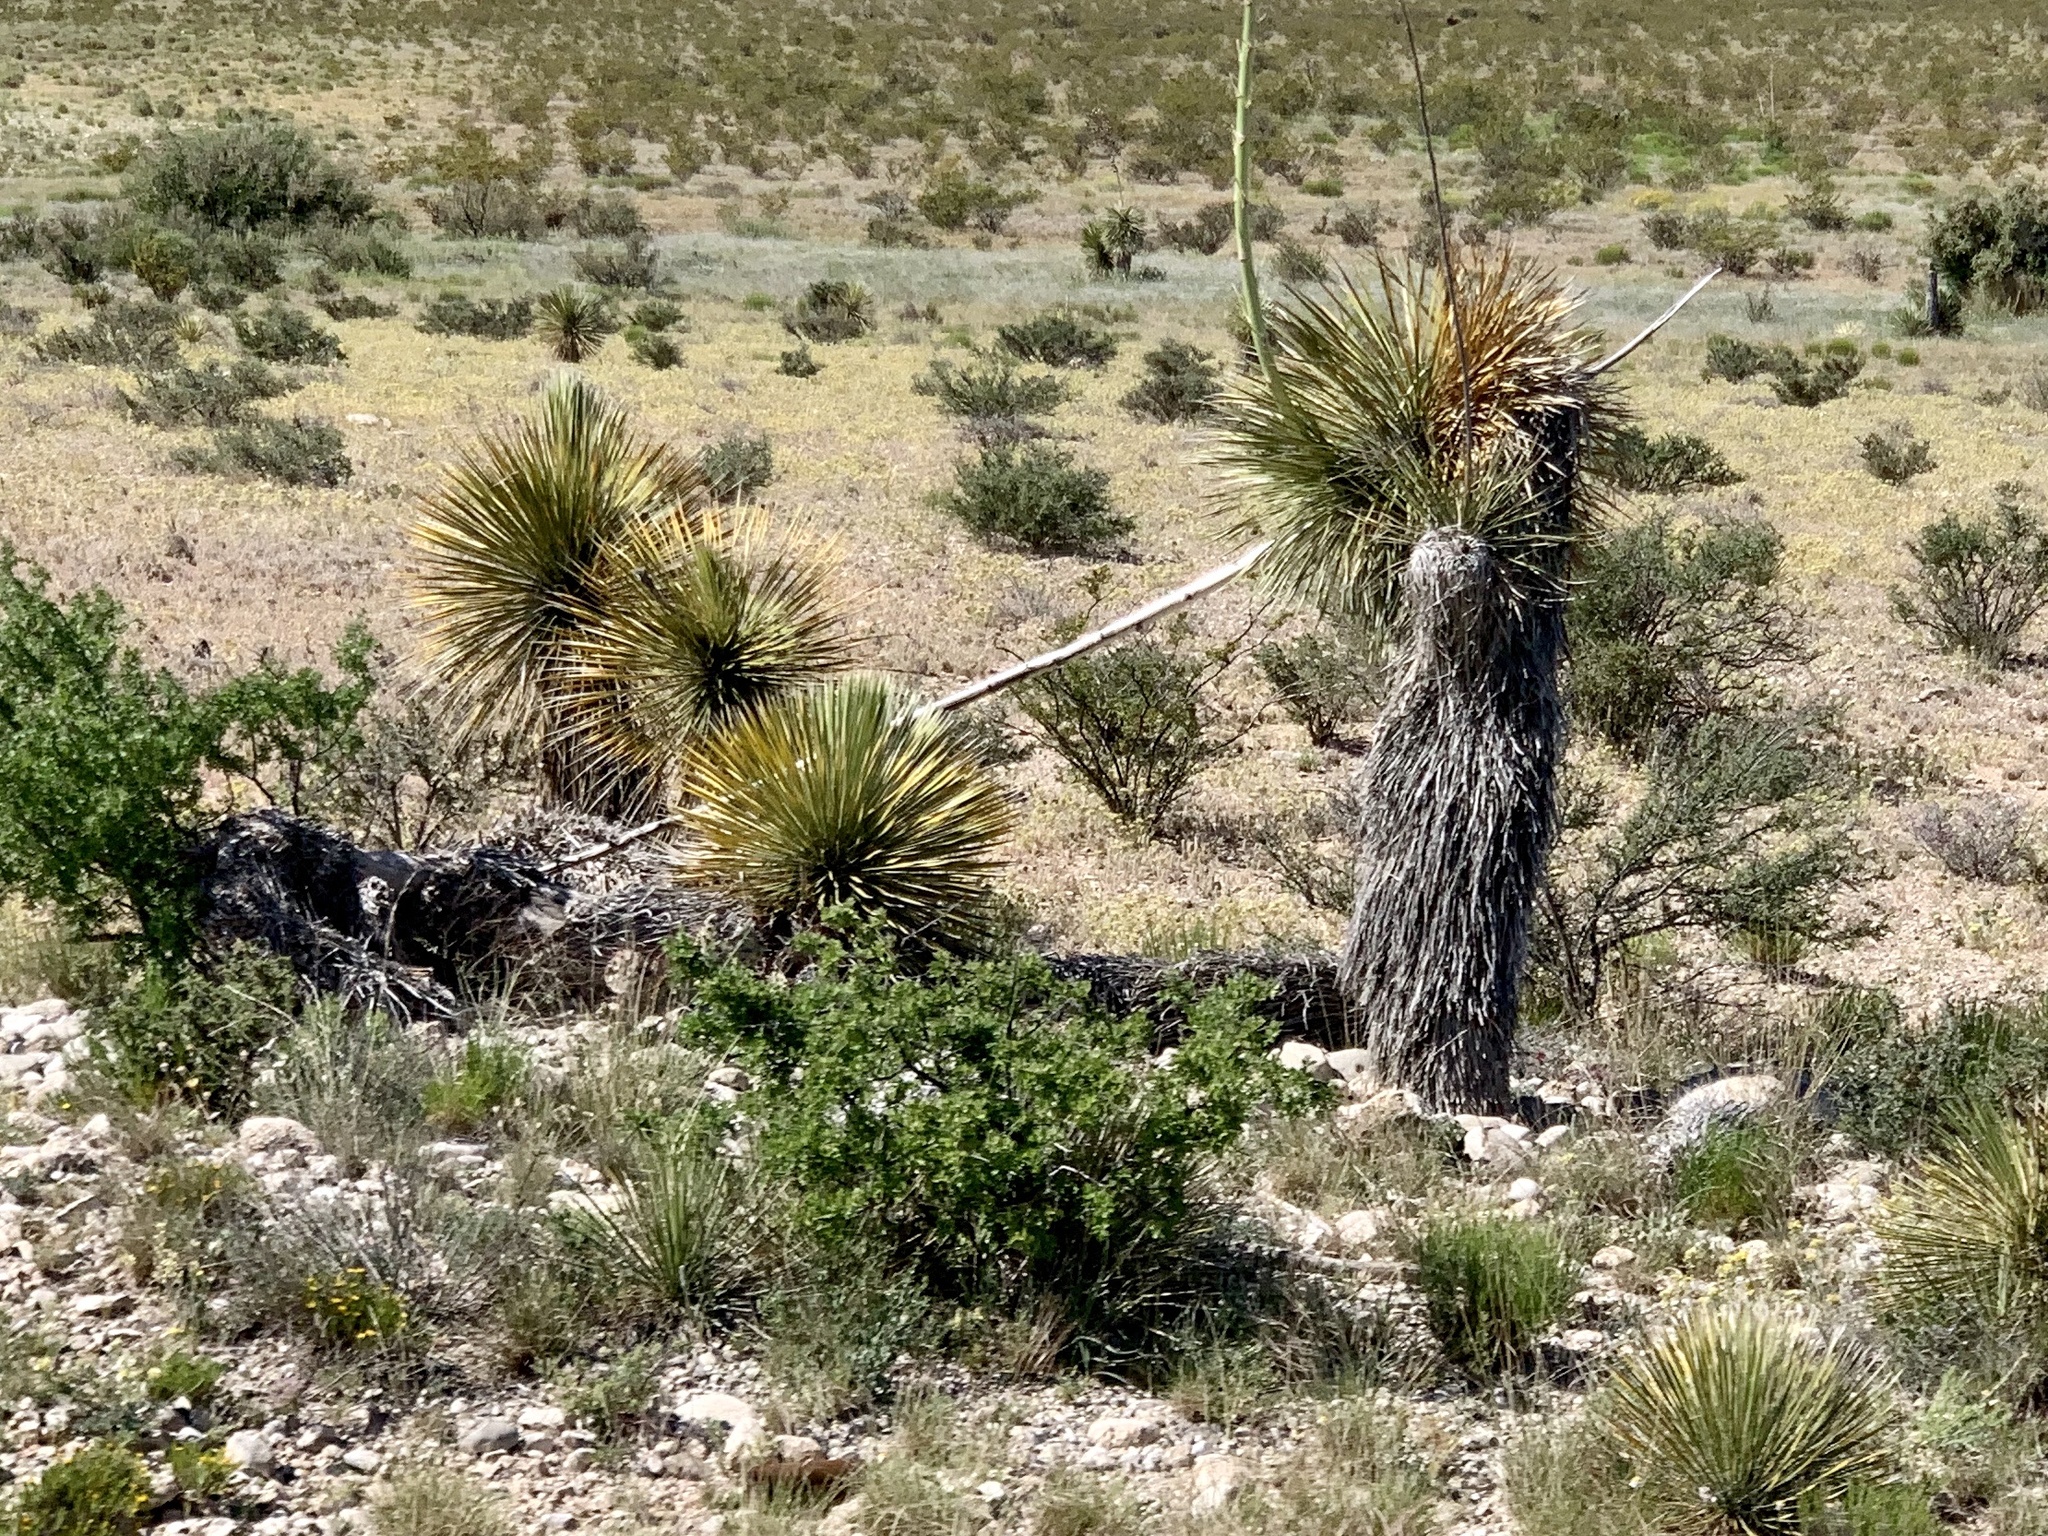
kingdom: Plantae
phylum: Tracheophyta
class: Liliopsida
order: Asparagales
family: Asparagaceae
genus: Yucca
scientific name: Yucca elata
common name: Palmella
